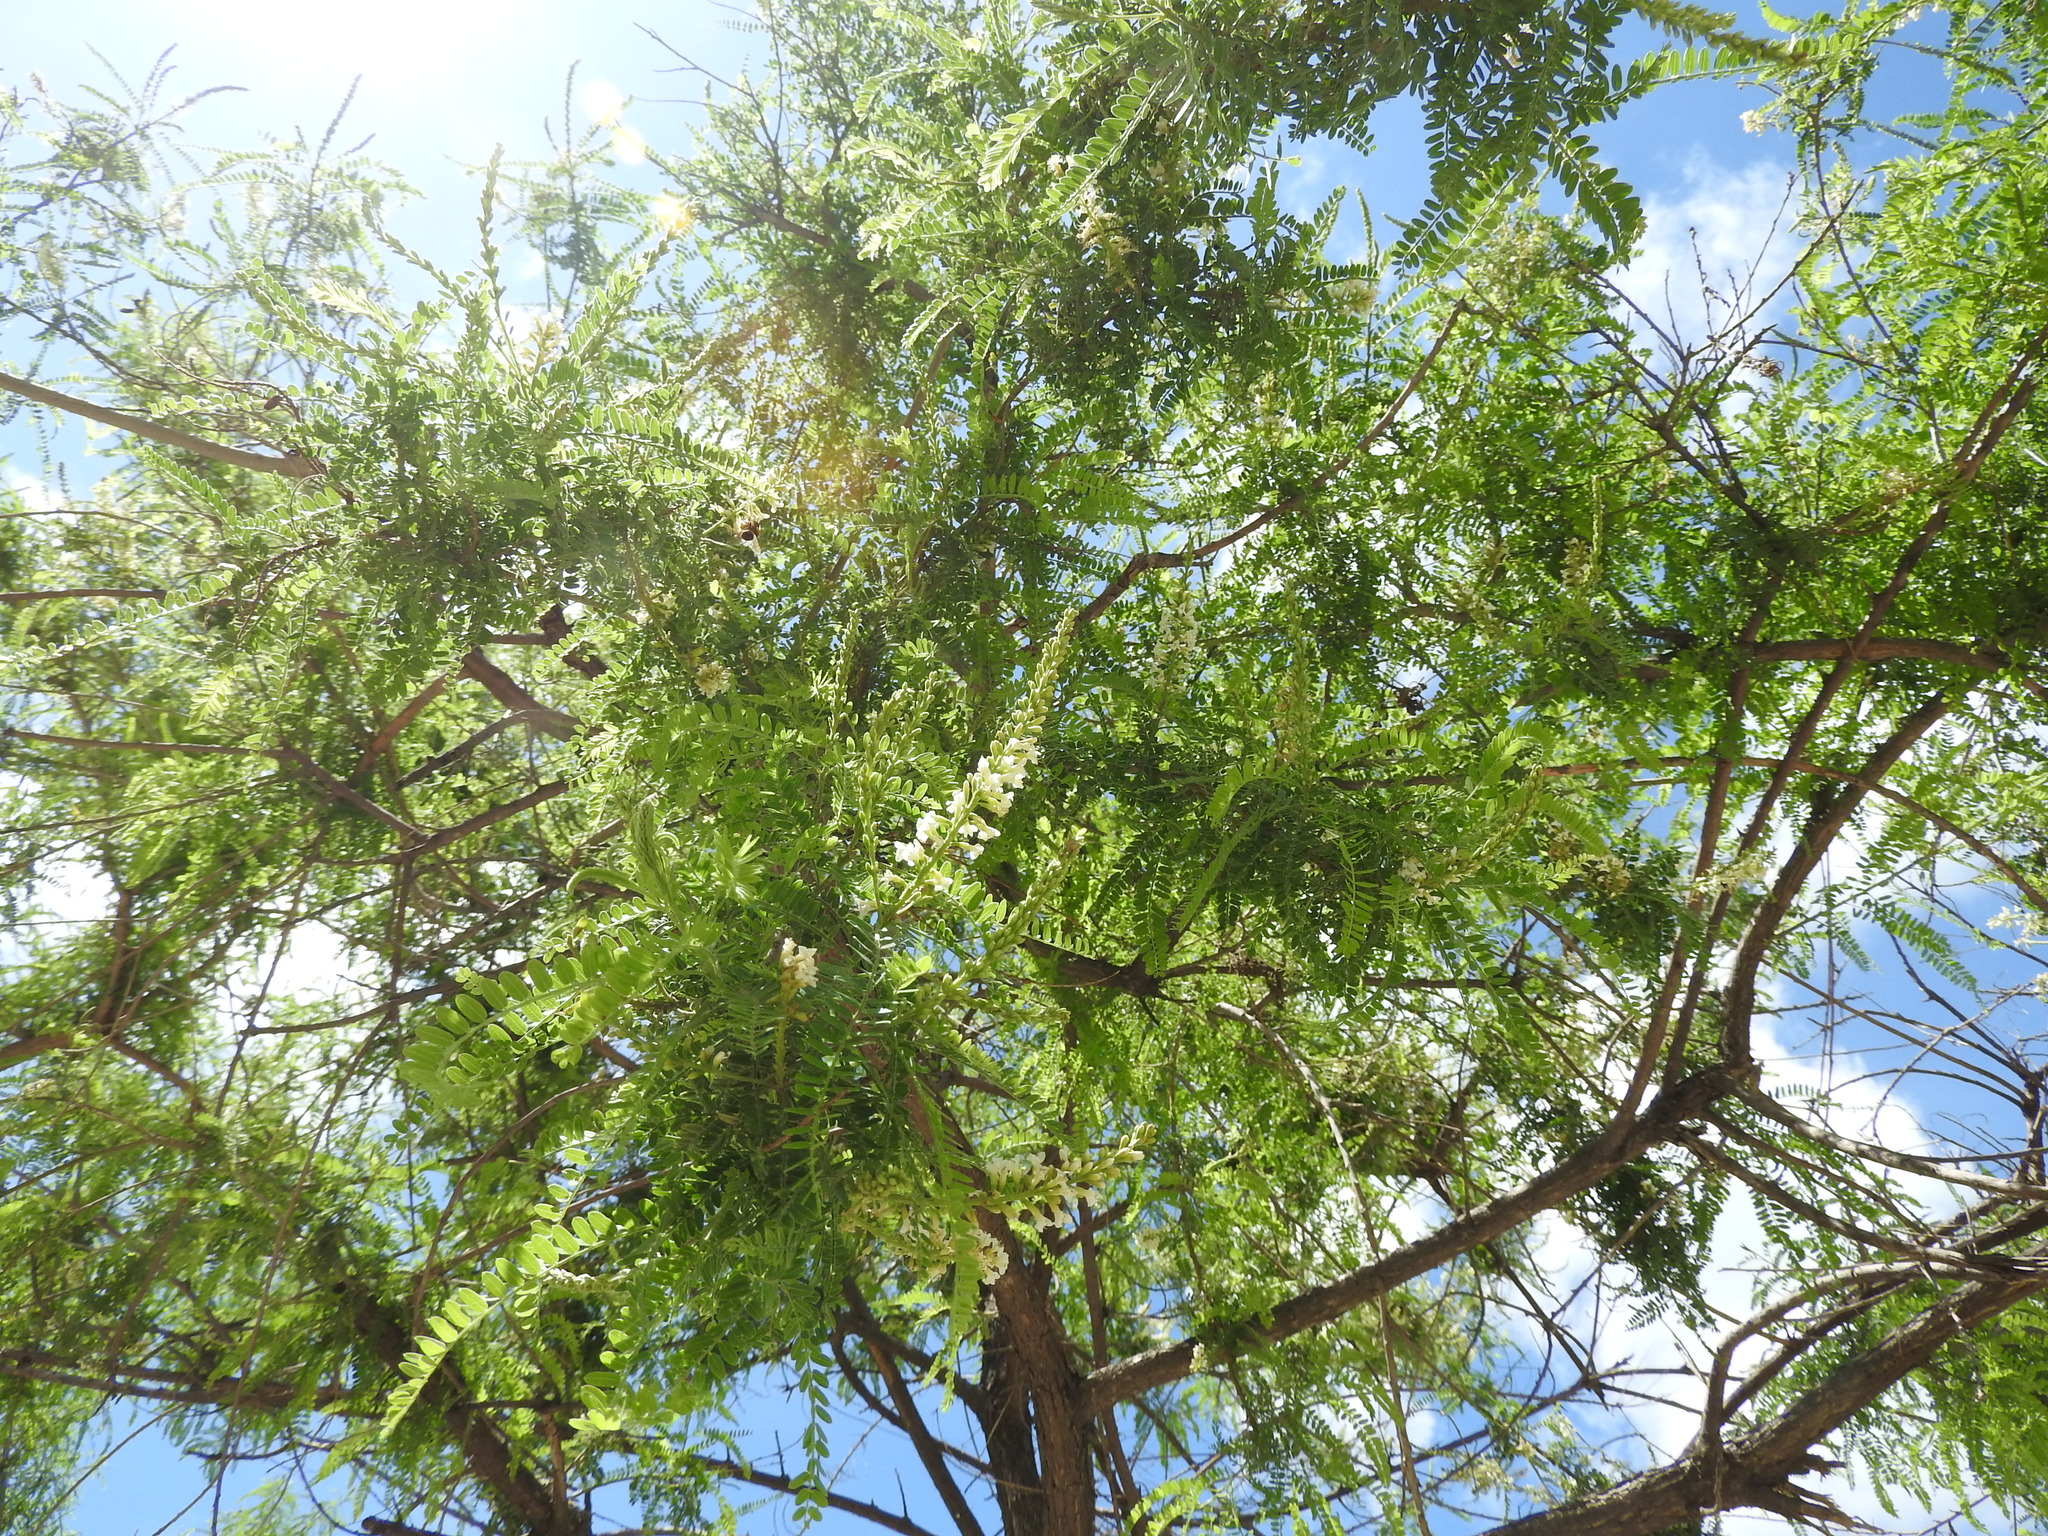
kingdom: Plantae
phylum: Tracheophyta
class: Magnoliopsida
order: Fabales
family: Fabaceae
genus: Eysenhardtia
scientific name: Eysenhardtia polystachya
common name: Kidneywood
